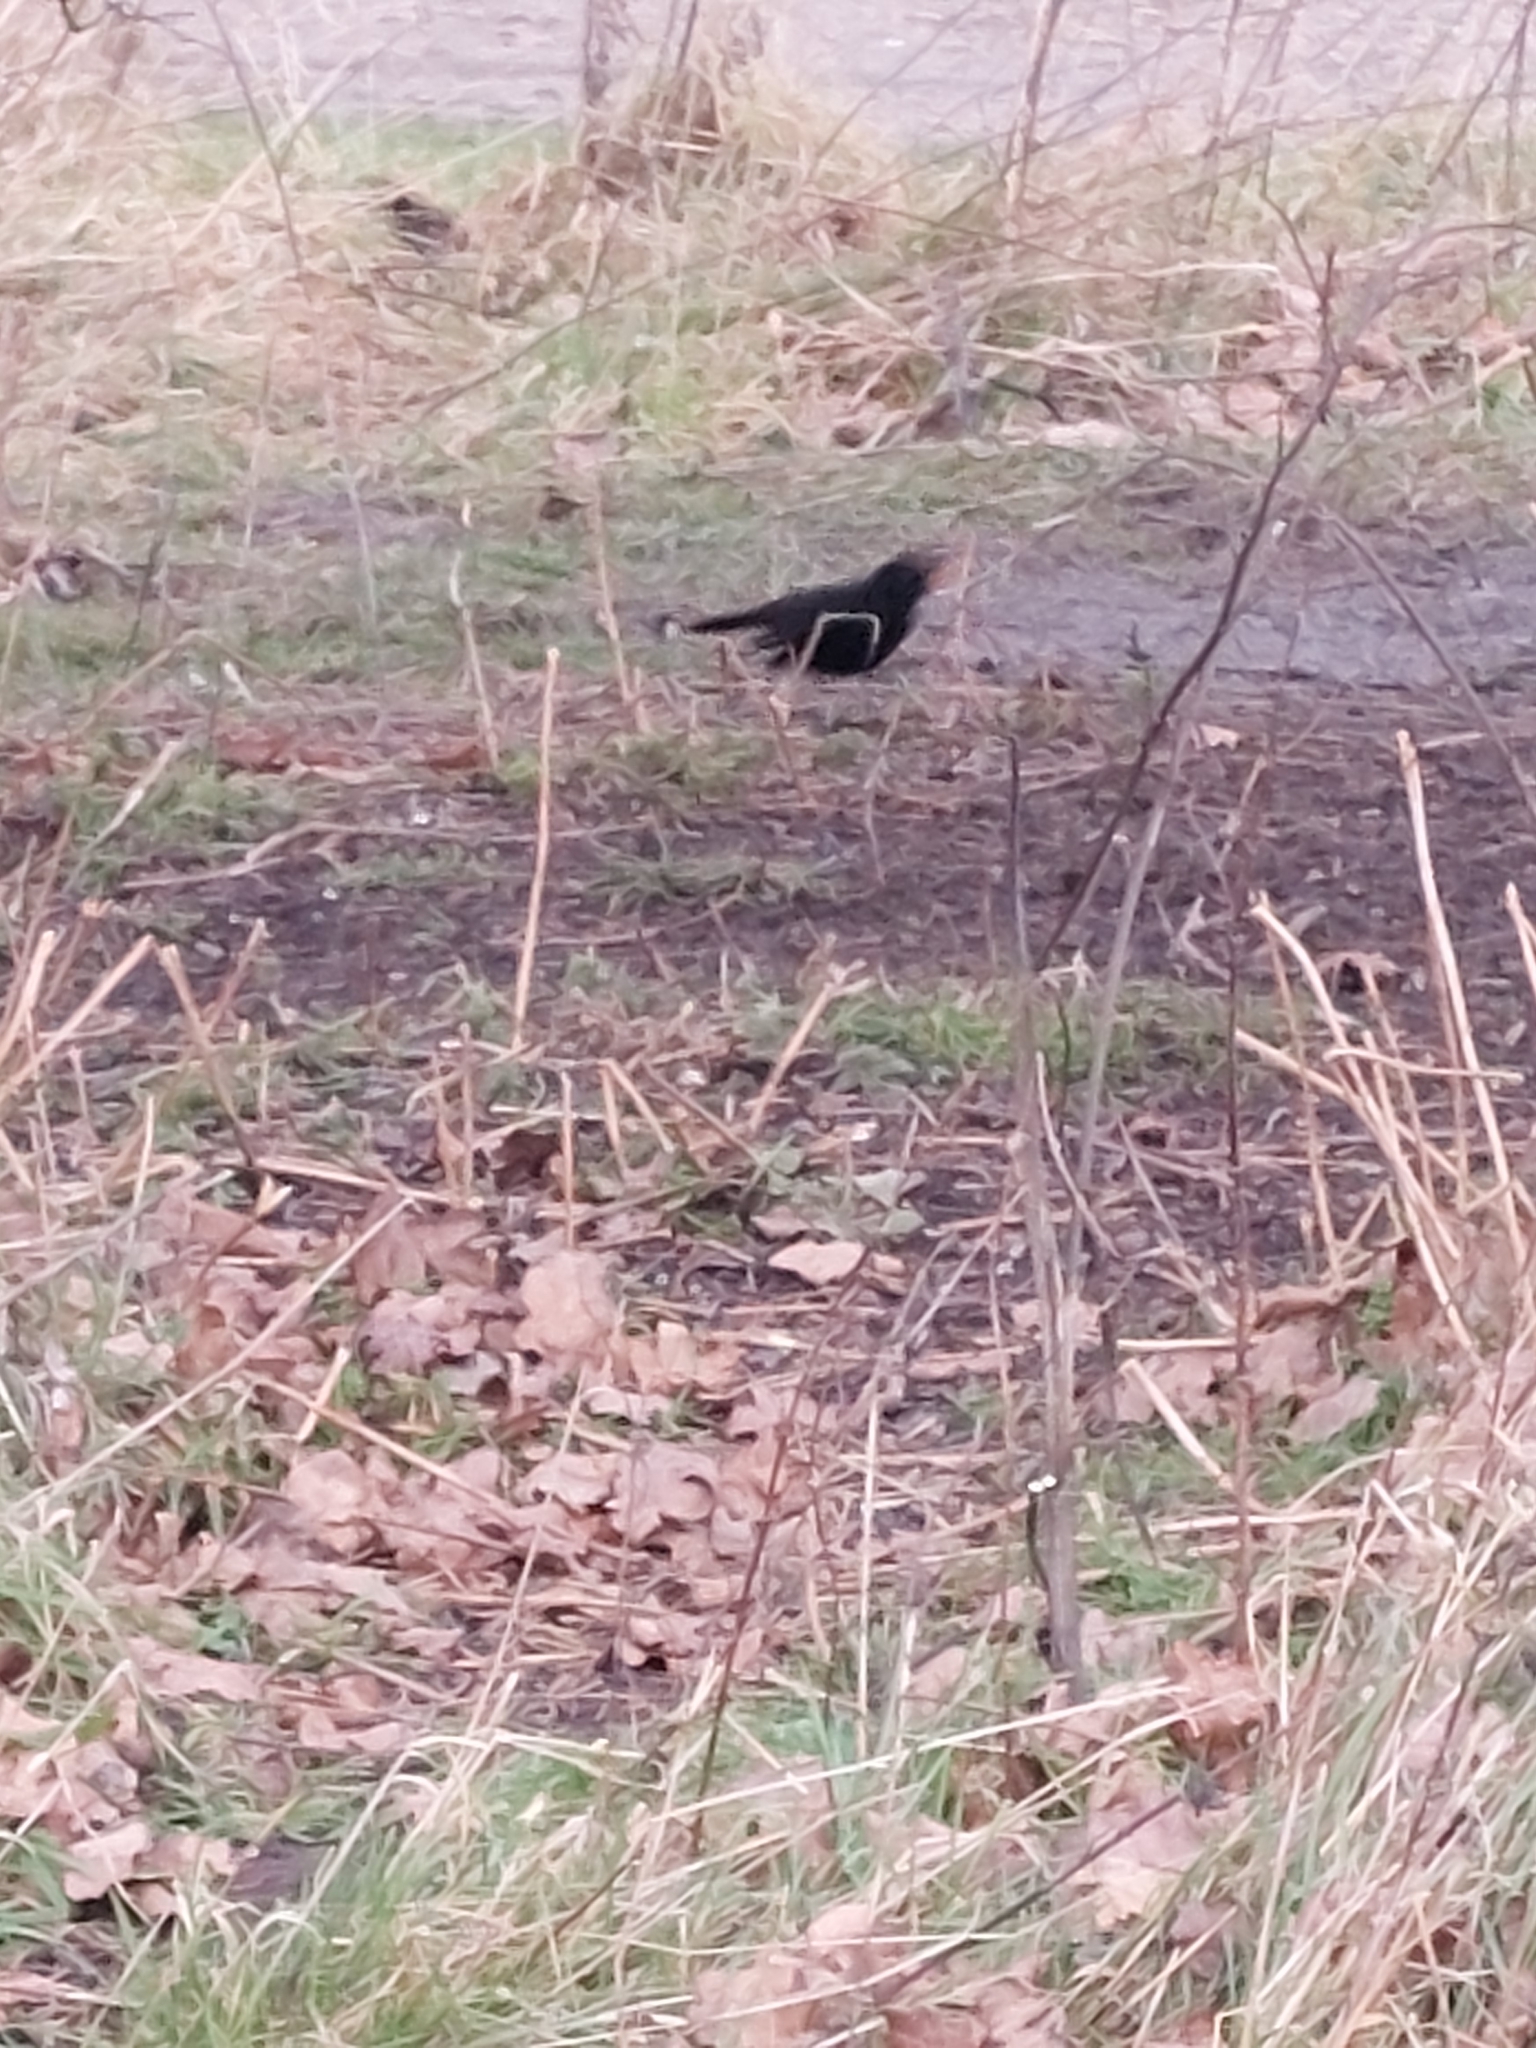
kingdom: Animalia
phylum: Chordata
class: Aves
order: Passeriformes
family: Turdidae
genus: Turdus
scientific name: Turdus merula
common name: Common blackbird
